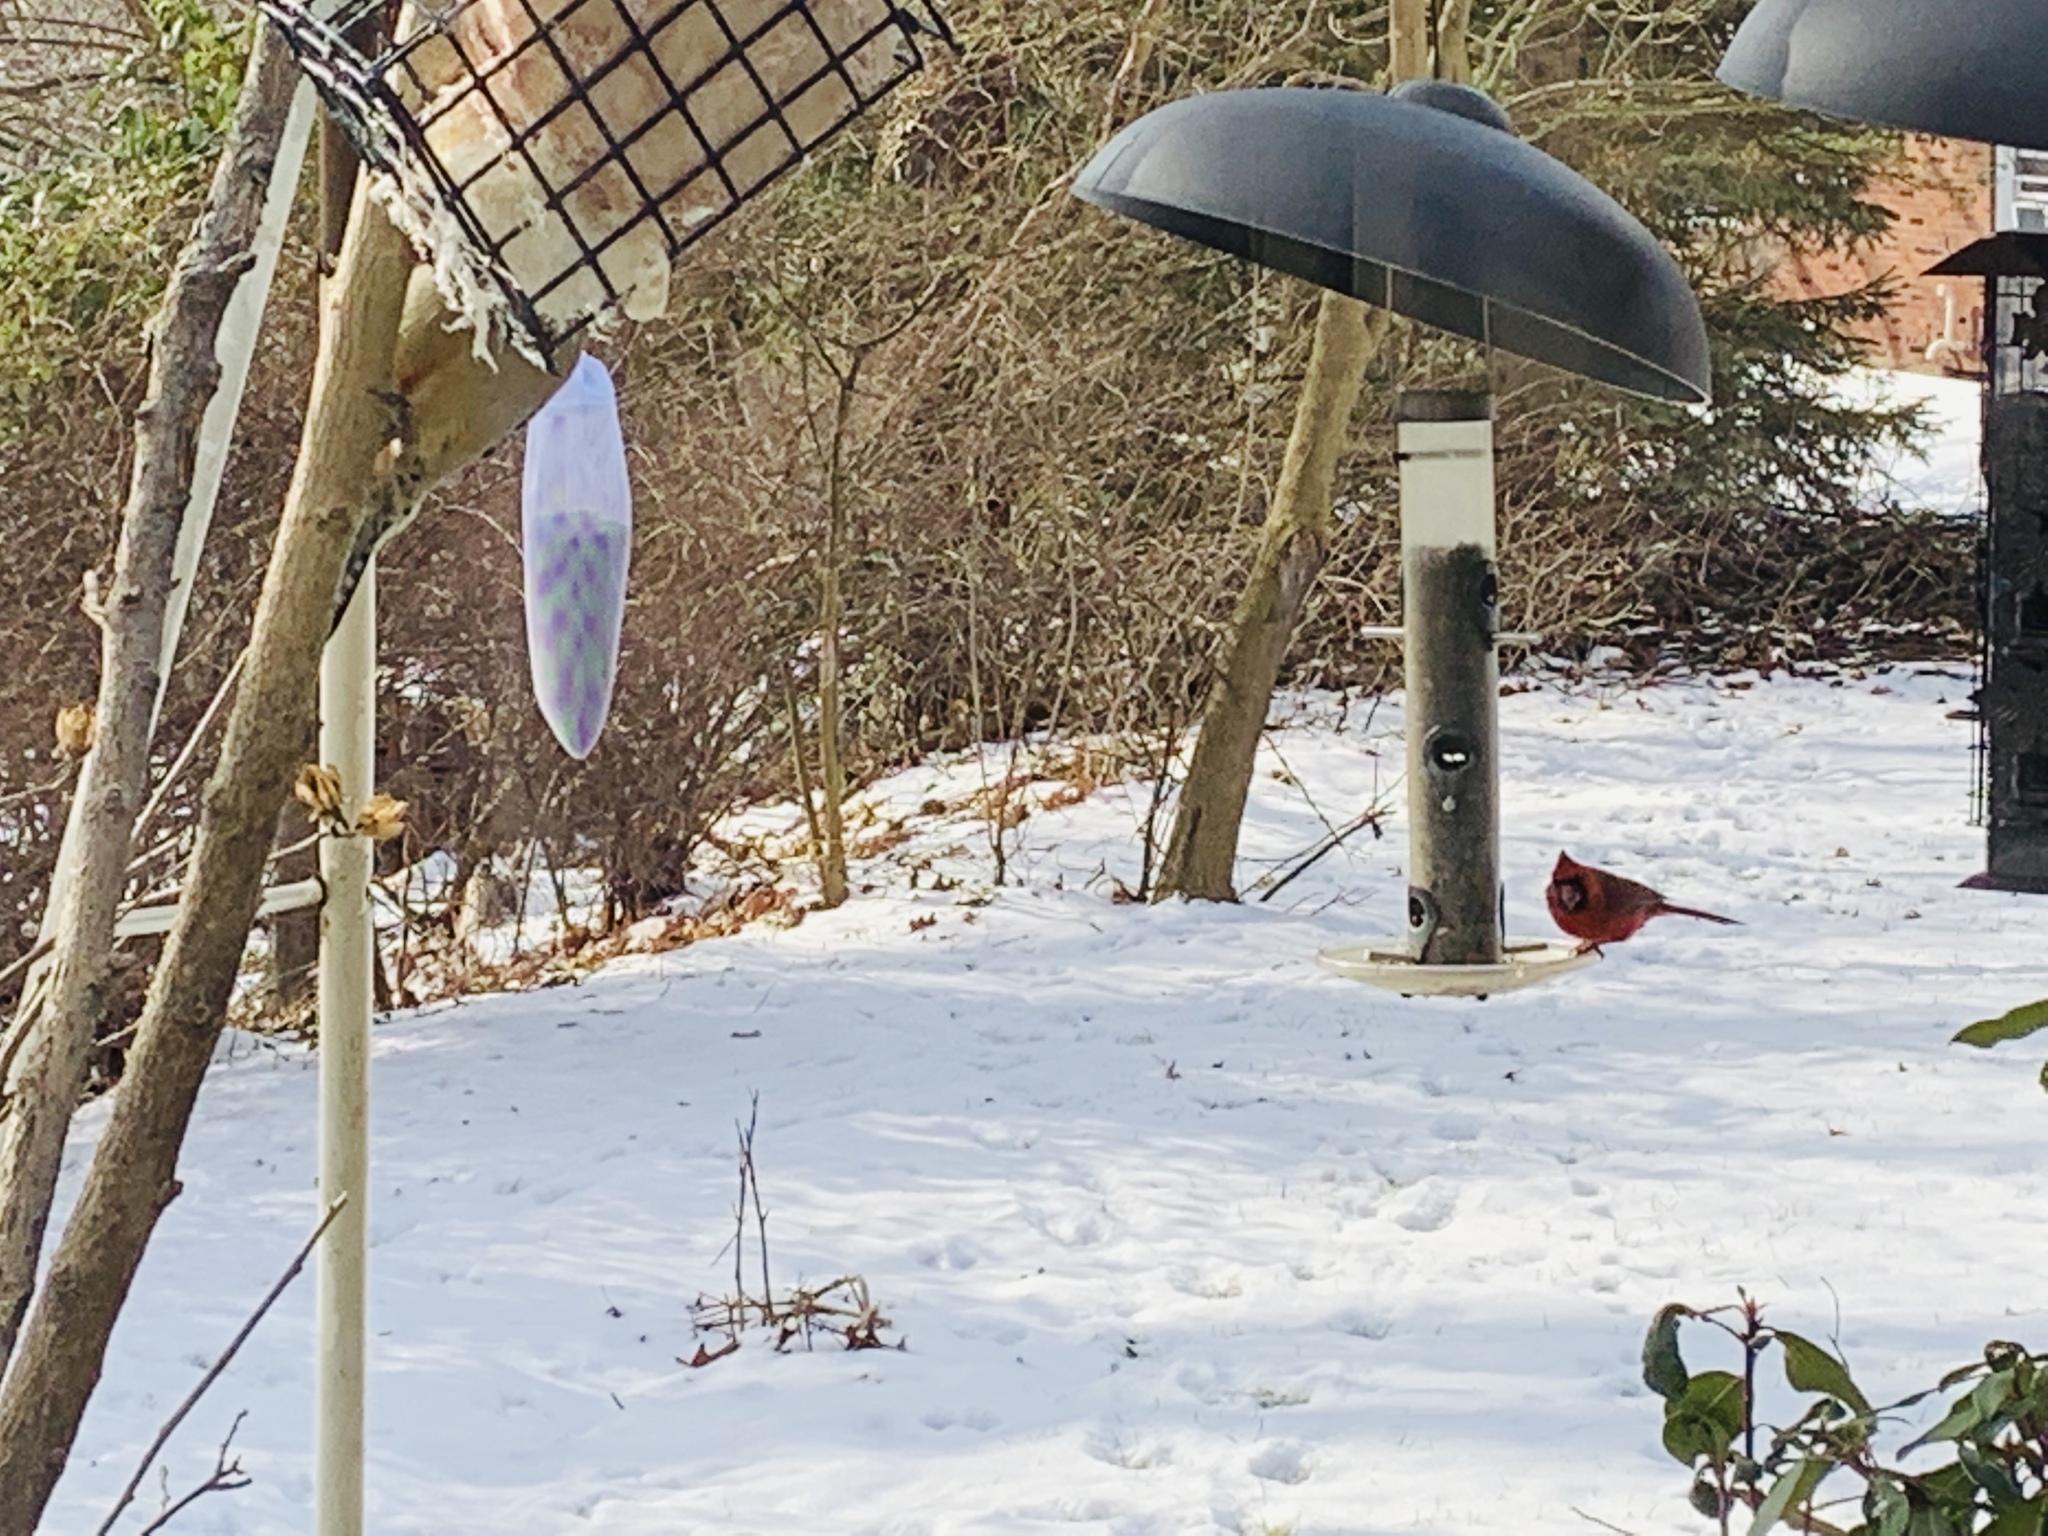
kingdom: Animalia
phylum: Chordata
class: Aves
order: Piciformes
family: Picidae
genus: Melanerpes
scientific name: Melanerpes carolinus
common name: Red-bellied woodpecker
